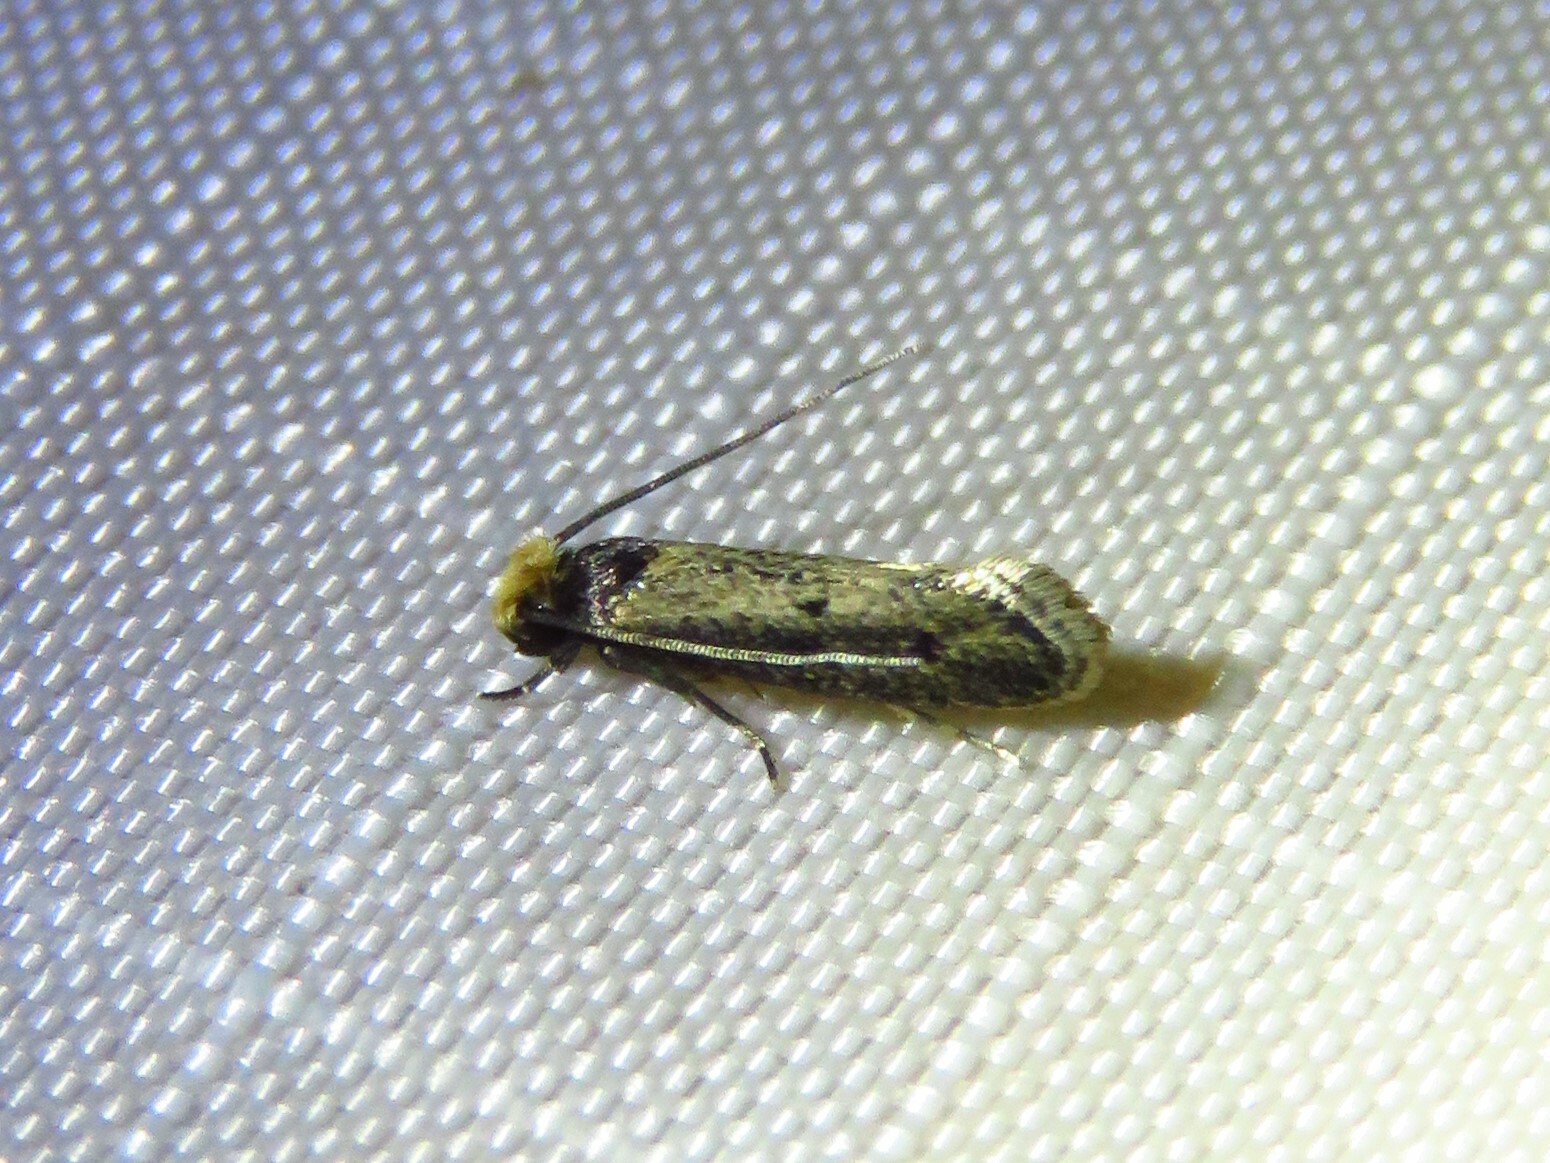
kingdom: Animalia
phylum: Arthropoda
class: Insecta
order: Lepidoptera
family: Tineidae
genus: Tinea
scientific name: Tinea apicimaculella
